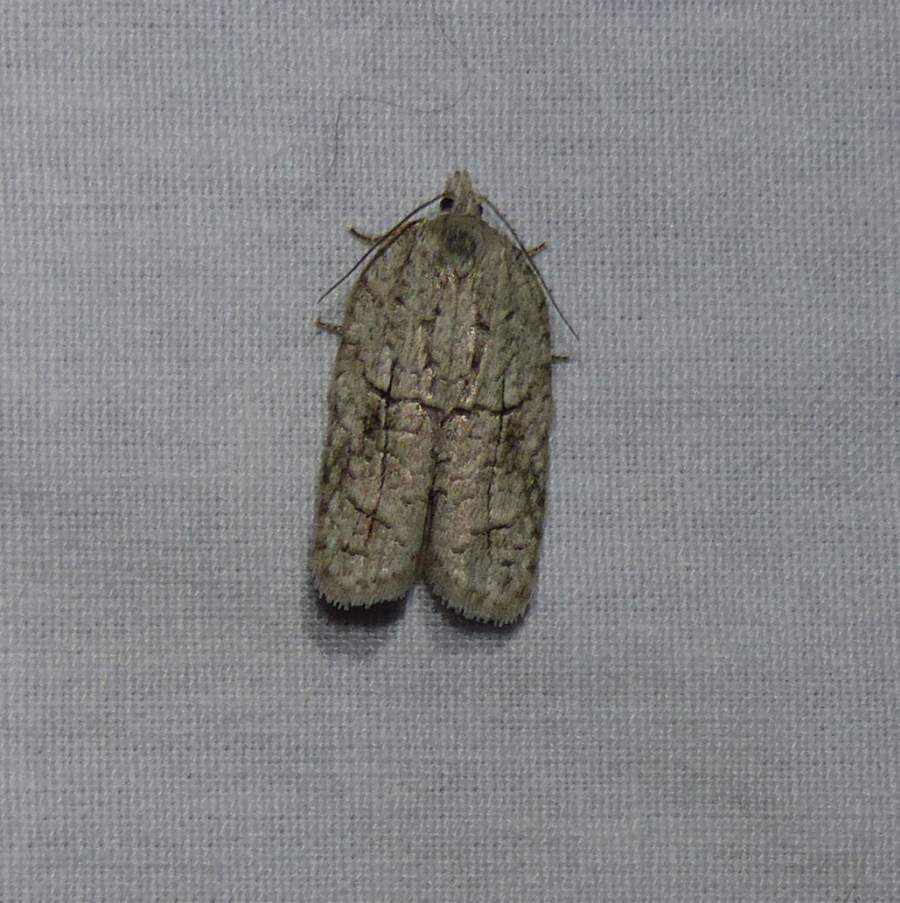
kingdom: Animalia
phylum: Arthropoda
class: Insecta
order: Lepidoptera
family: Tortricidae
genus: Acleris
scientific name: Acleris nigrolinea
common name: Black-lined acleris
